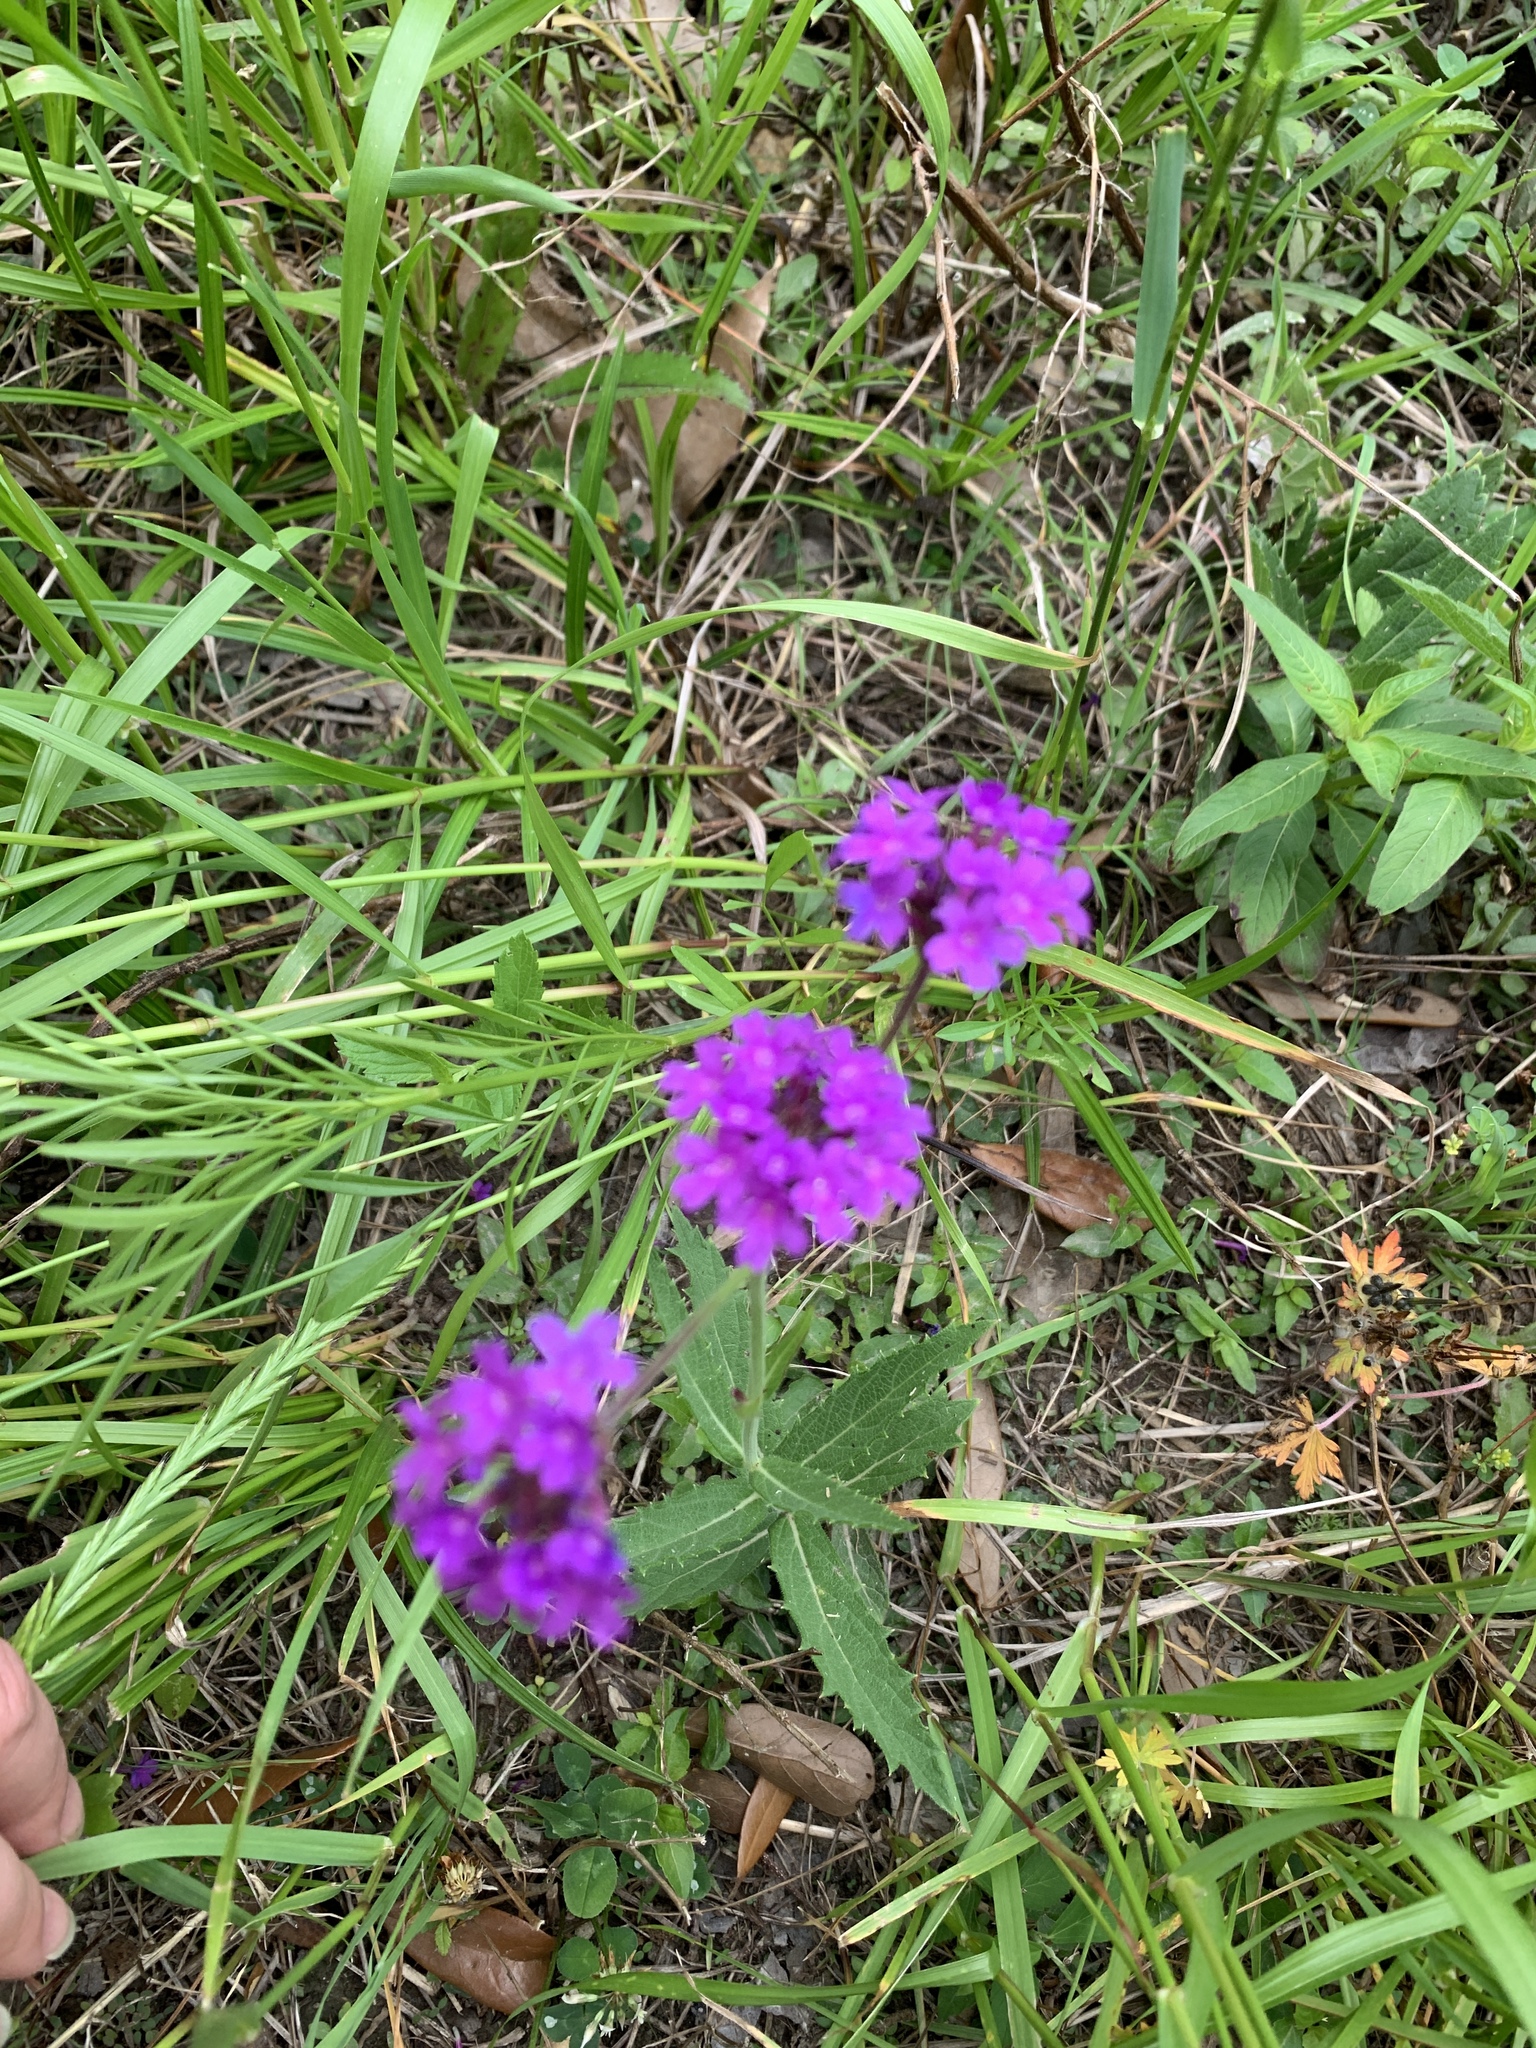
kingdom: Plantae
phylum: Tracheophyta
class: Magnoliopsida
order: Lamiales
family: Verbenaceae
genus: Verbena
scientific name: Verbena rigida
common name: Slender vervain
